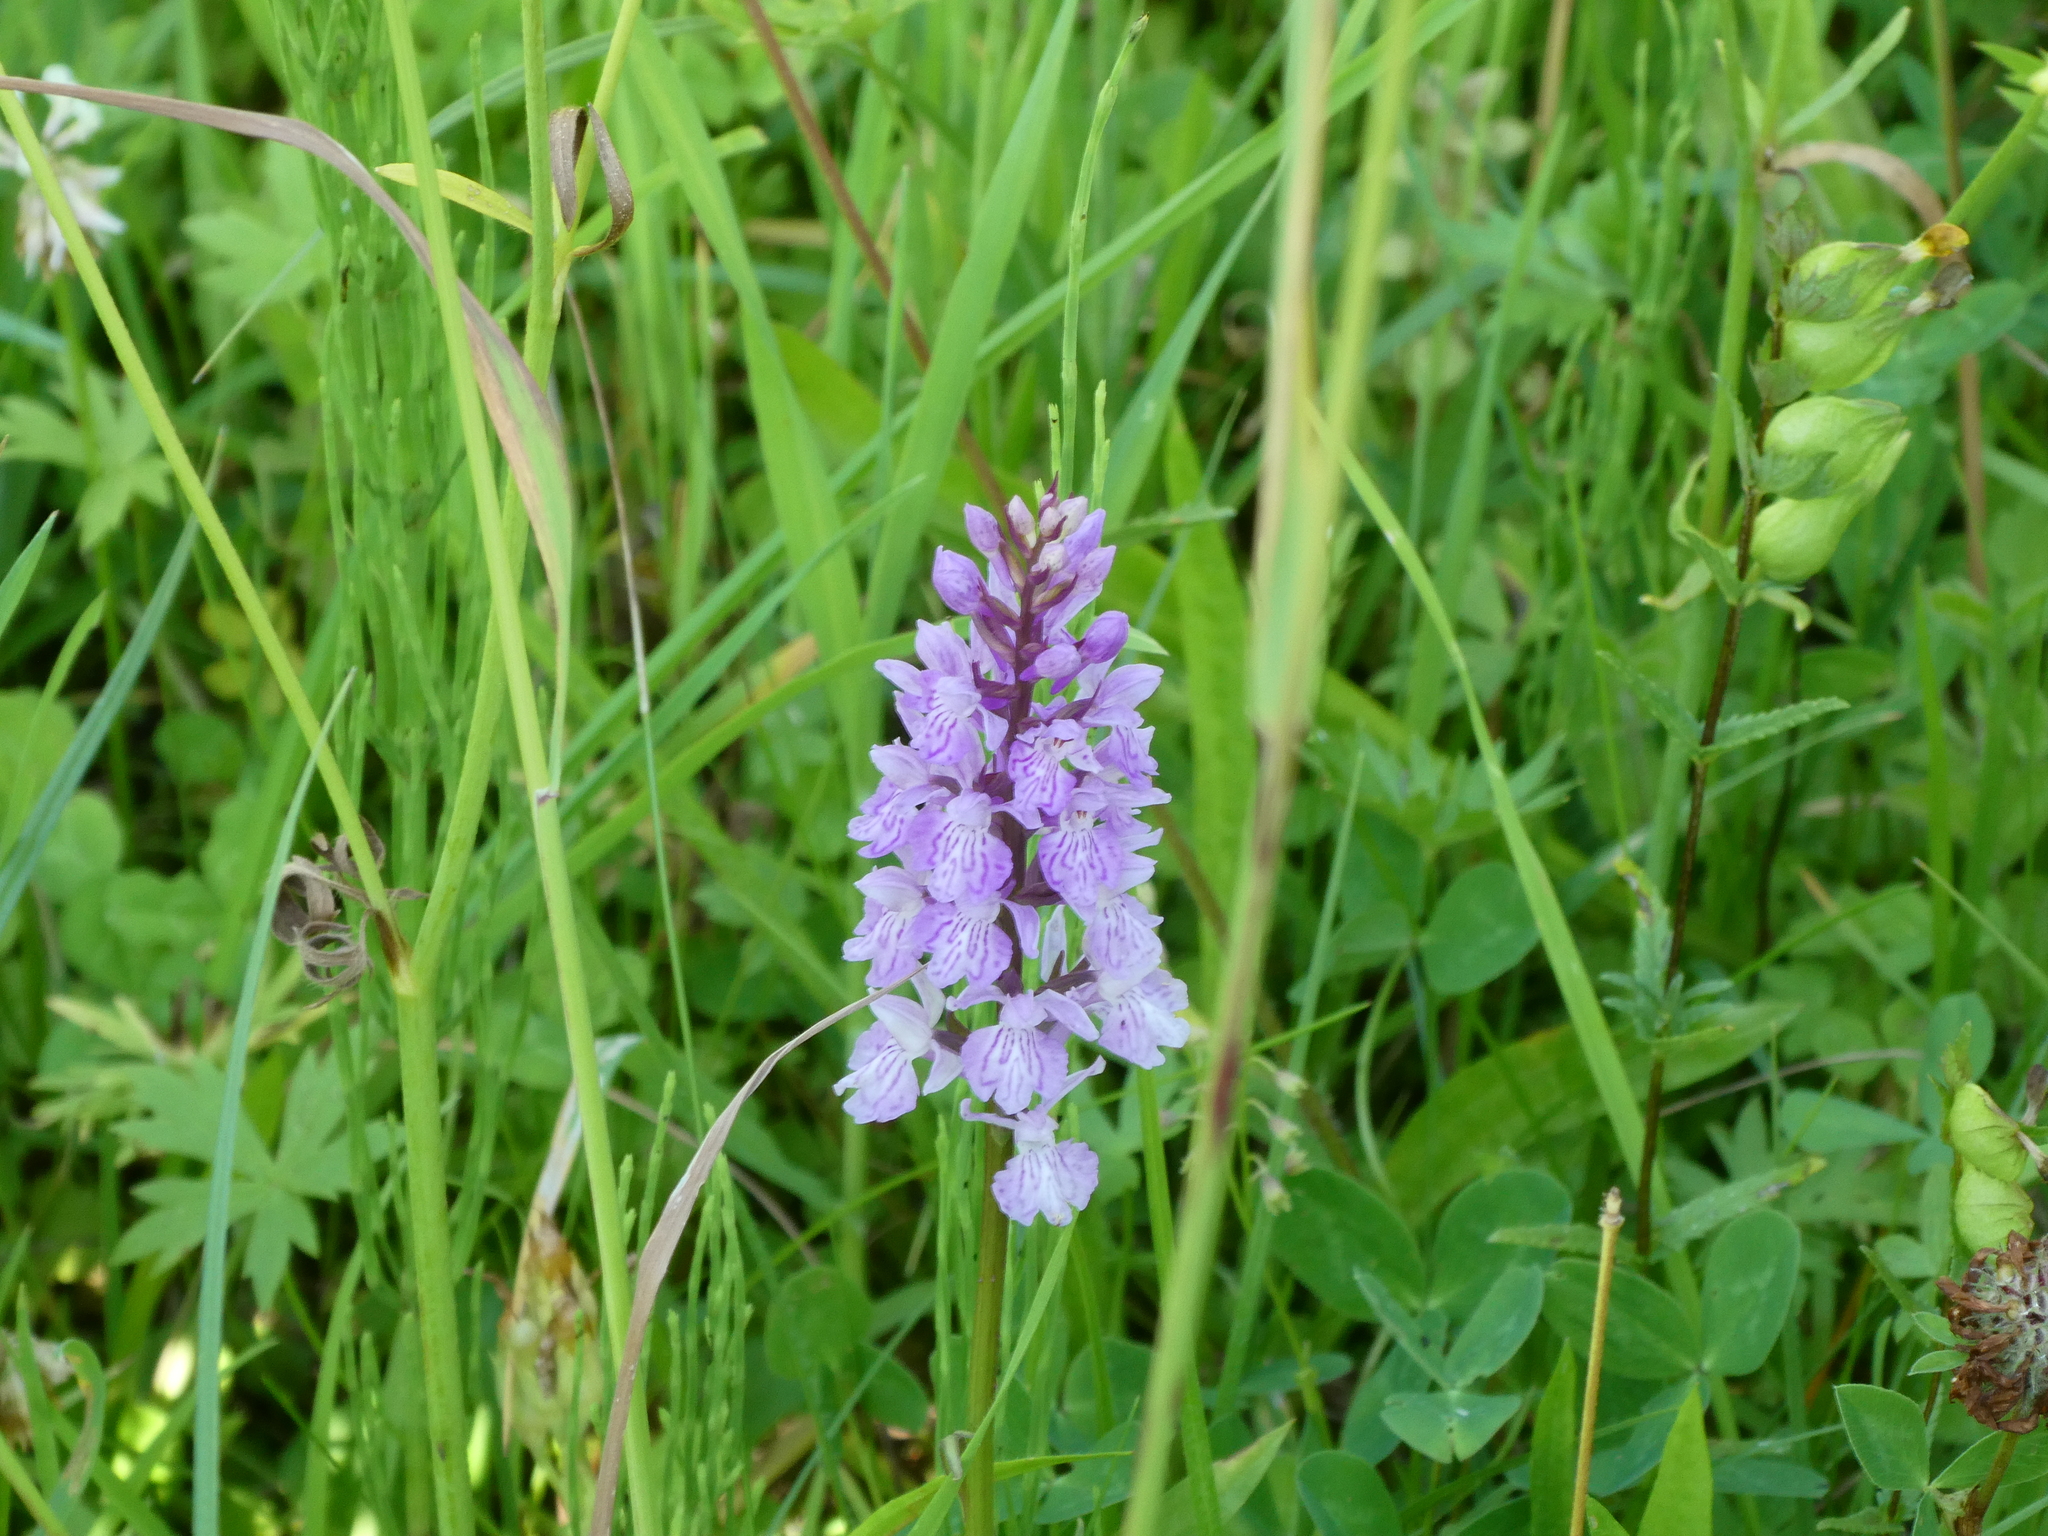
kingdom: Plantae
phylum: Tracheophyta
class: Liliopsida
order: Asparagales
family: Orchidaceae
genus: Dactylorhiza
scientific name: Dactylorhiza maculata
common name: Heath spotted-orchid
